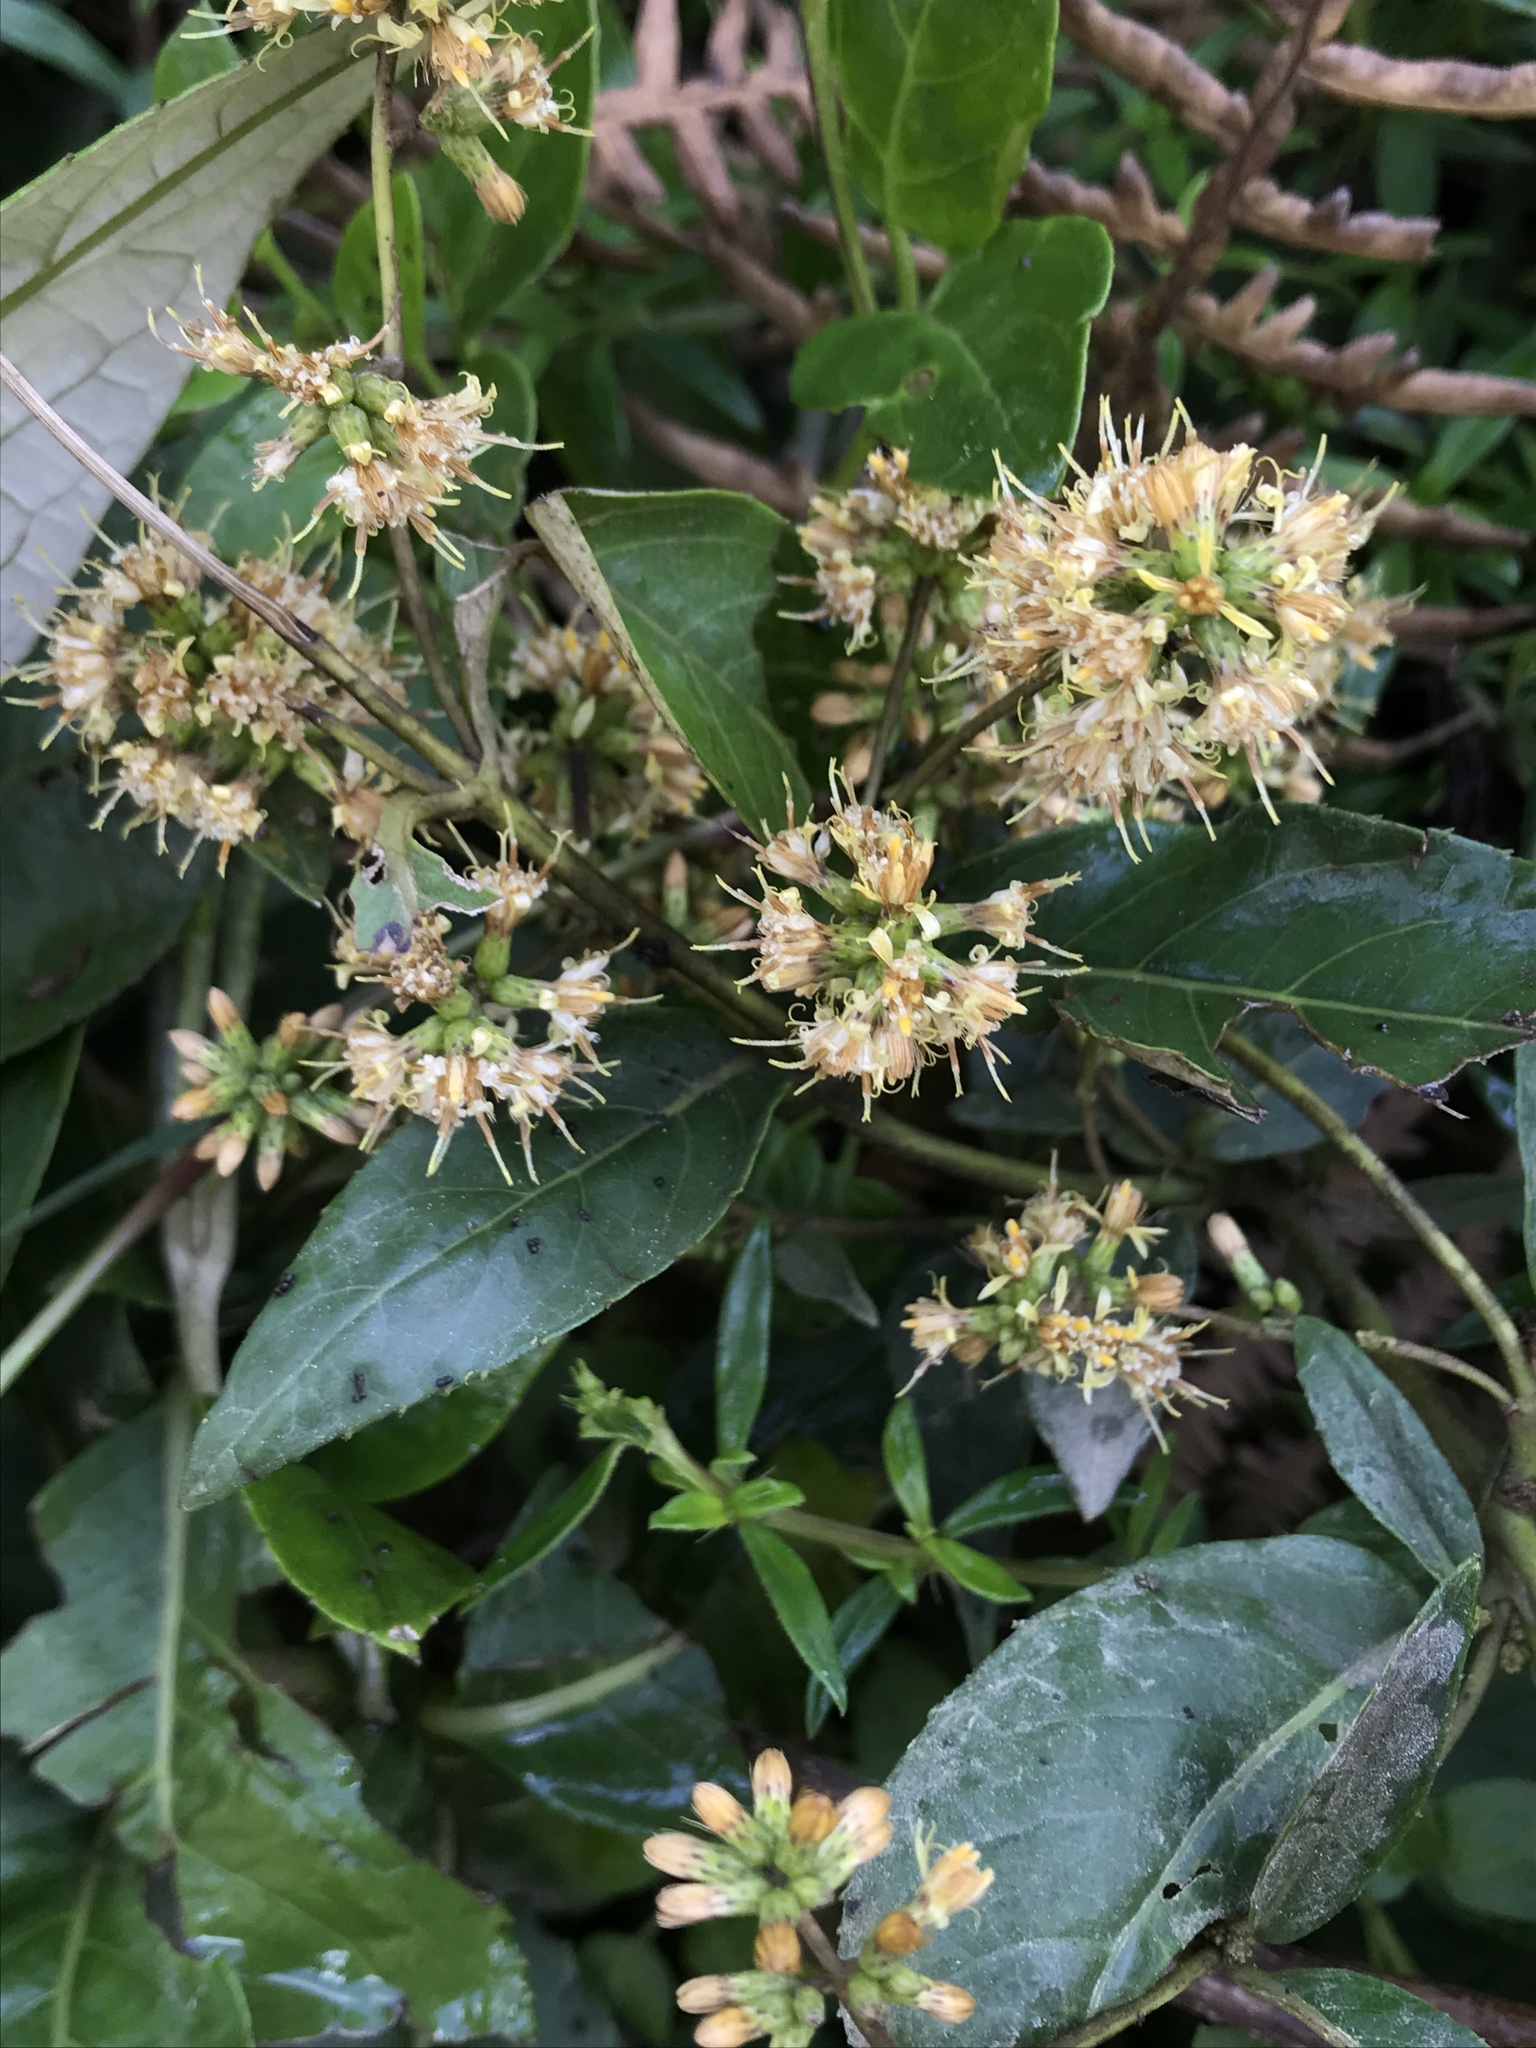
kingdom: Plantae
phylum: Tracheophyta
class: Magnoliopsida
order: Asterales
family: Asteraceae
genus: Oligactis
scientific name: Oligactis sessiliflora
